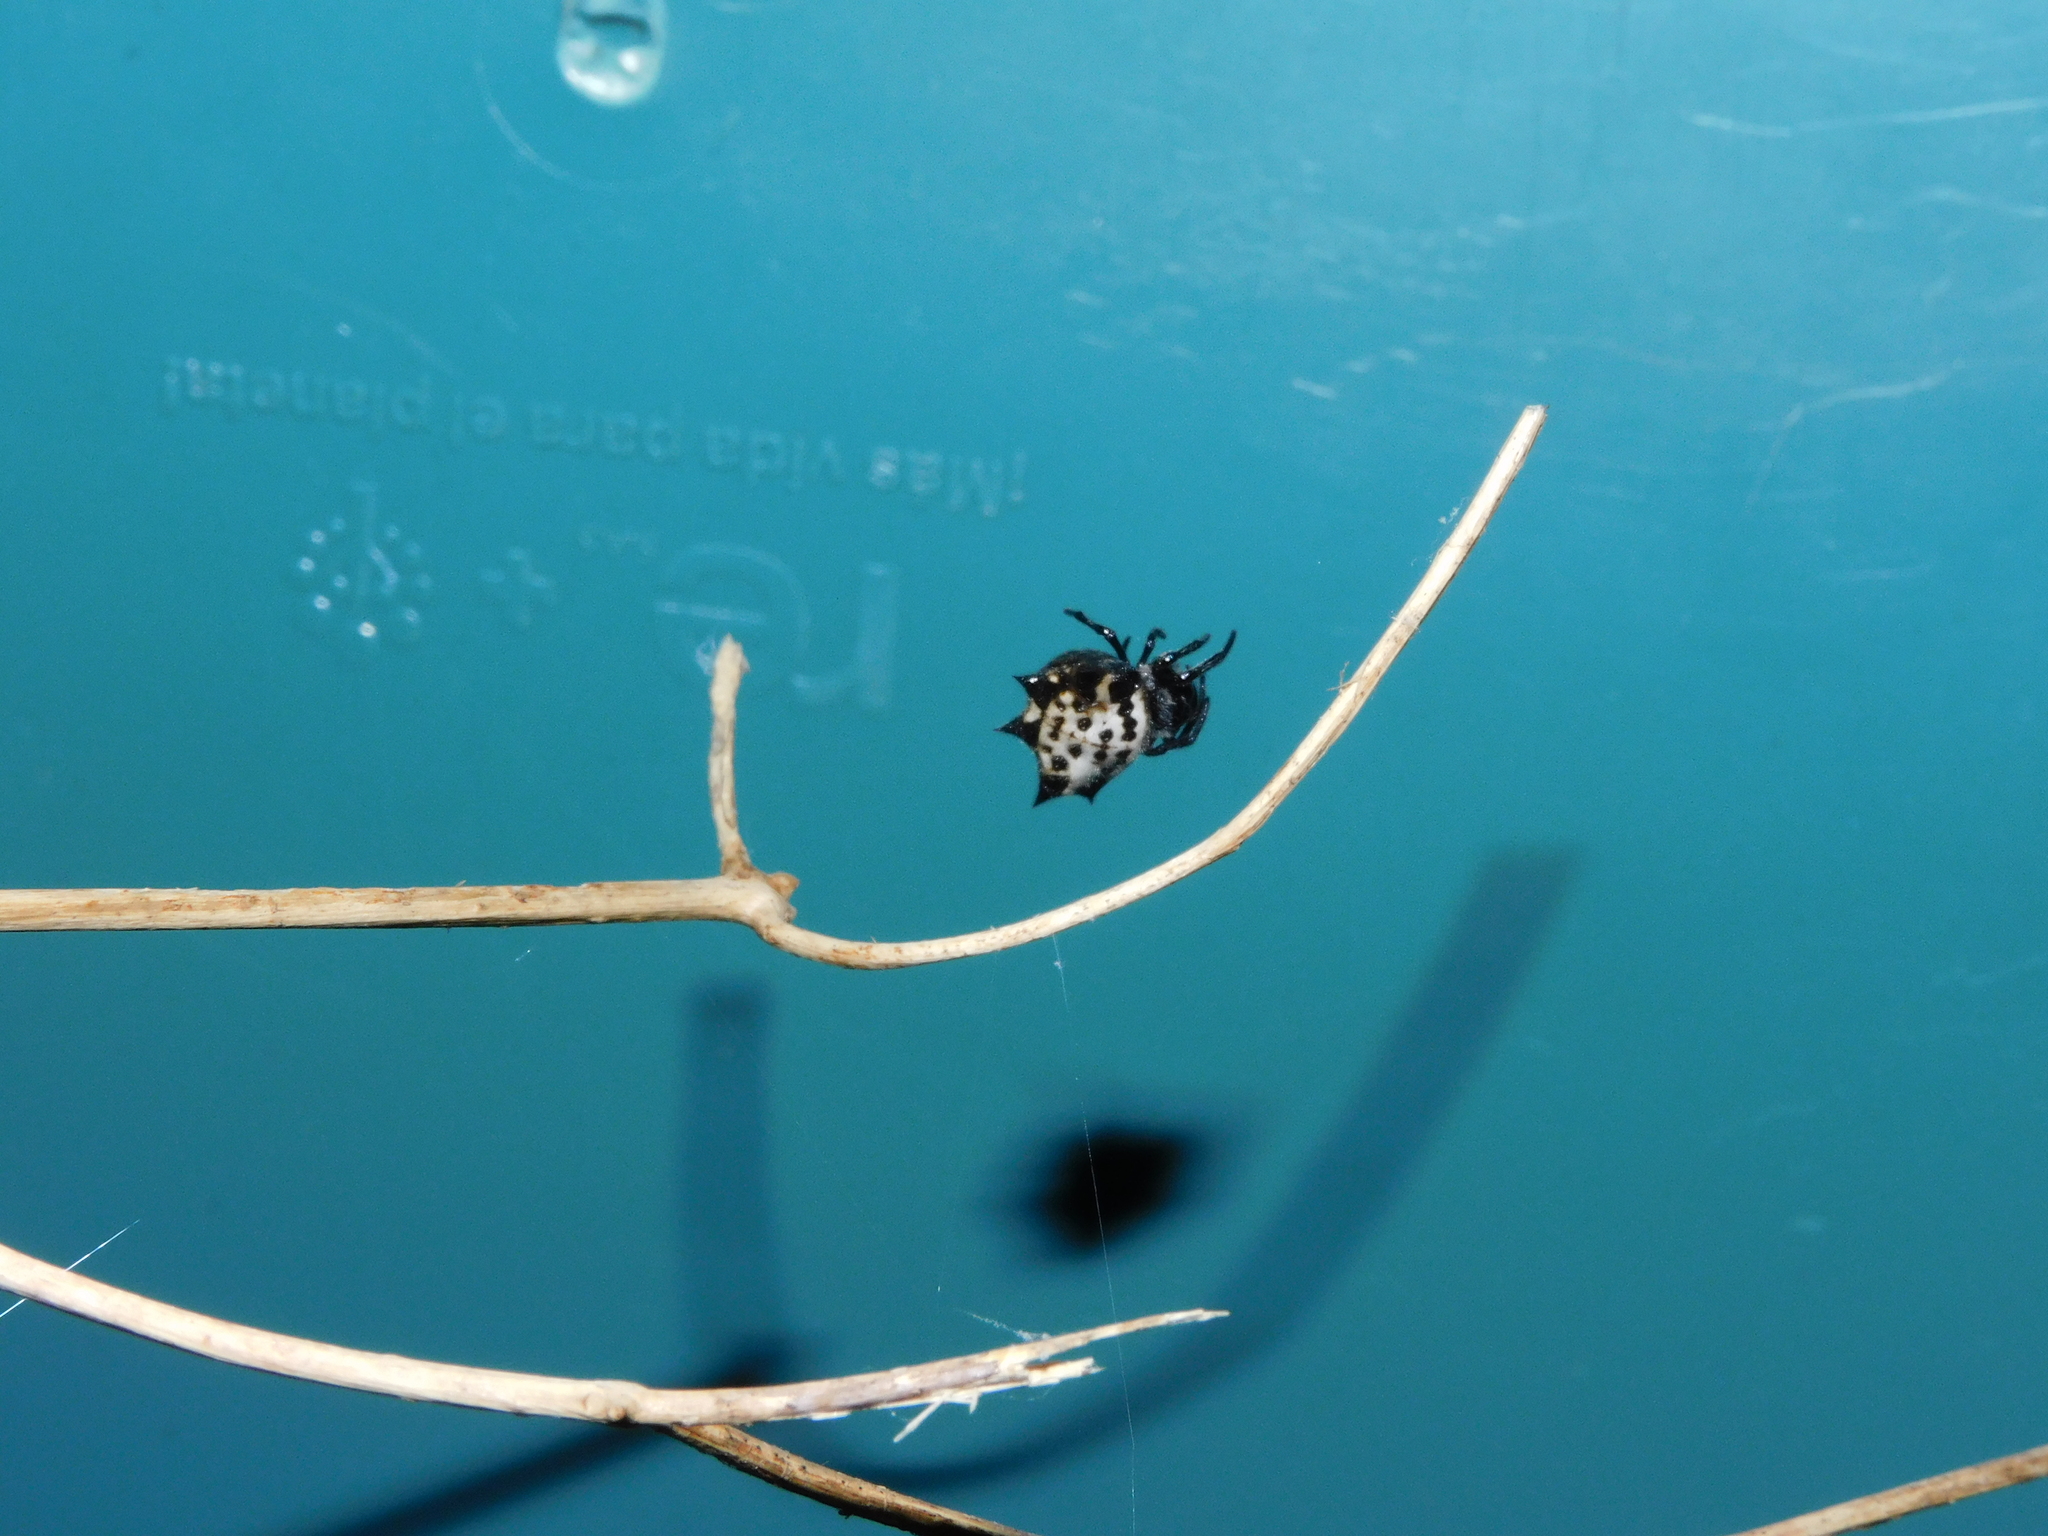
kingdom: Animalia
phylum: Arthropoda
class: Arachnida
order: Araneae
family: Araneidae
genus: Gasteracantha
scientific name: Gasteracantha cancriformis
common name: Orb weavers
